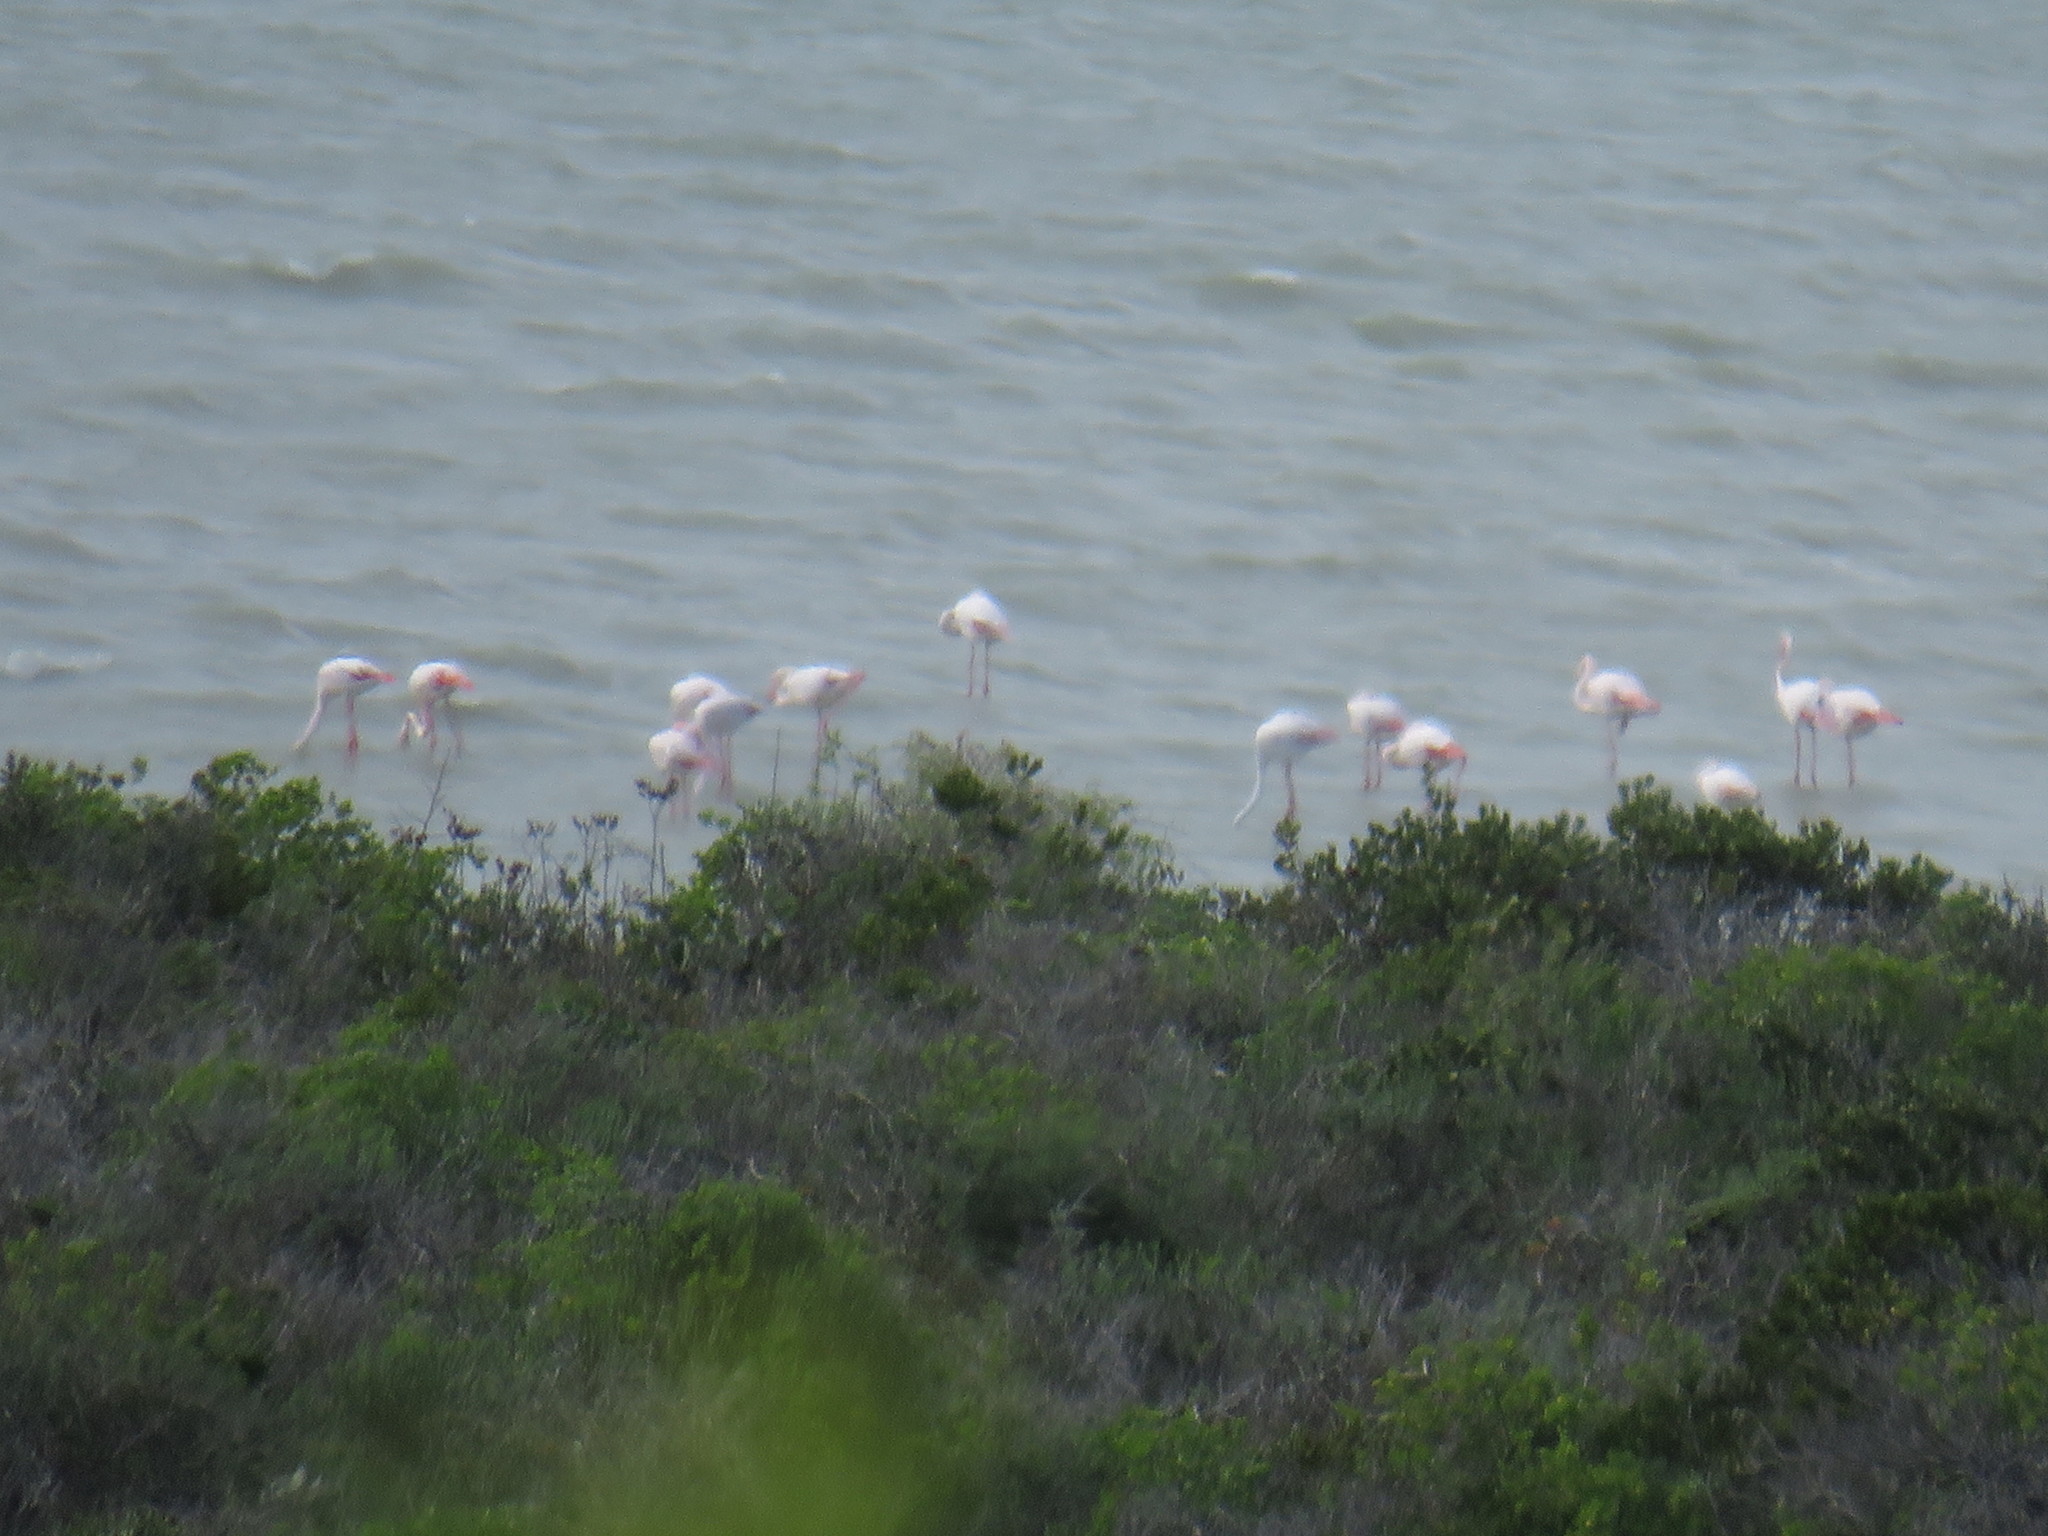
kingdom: Animalia
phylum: Chordata
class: Aves
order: Phoenicopteriformes
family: Phoenicopteridae
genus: Phoenicopterus
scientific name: Phoenicopterus roseus
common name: Greater flamingo
